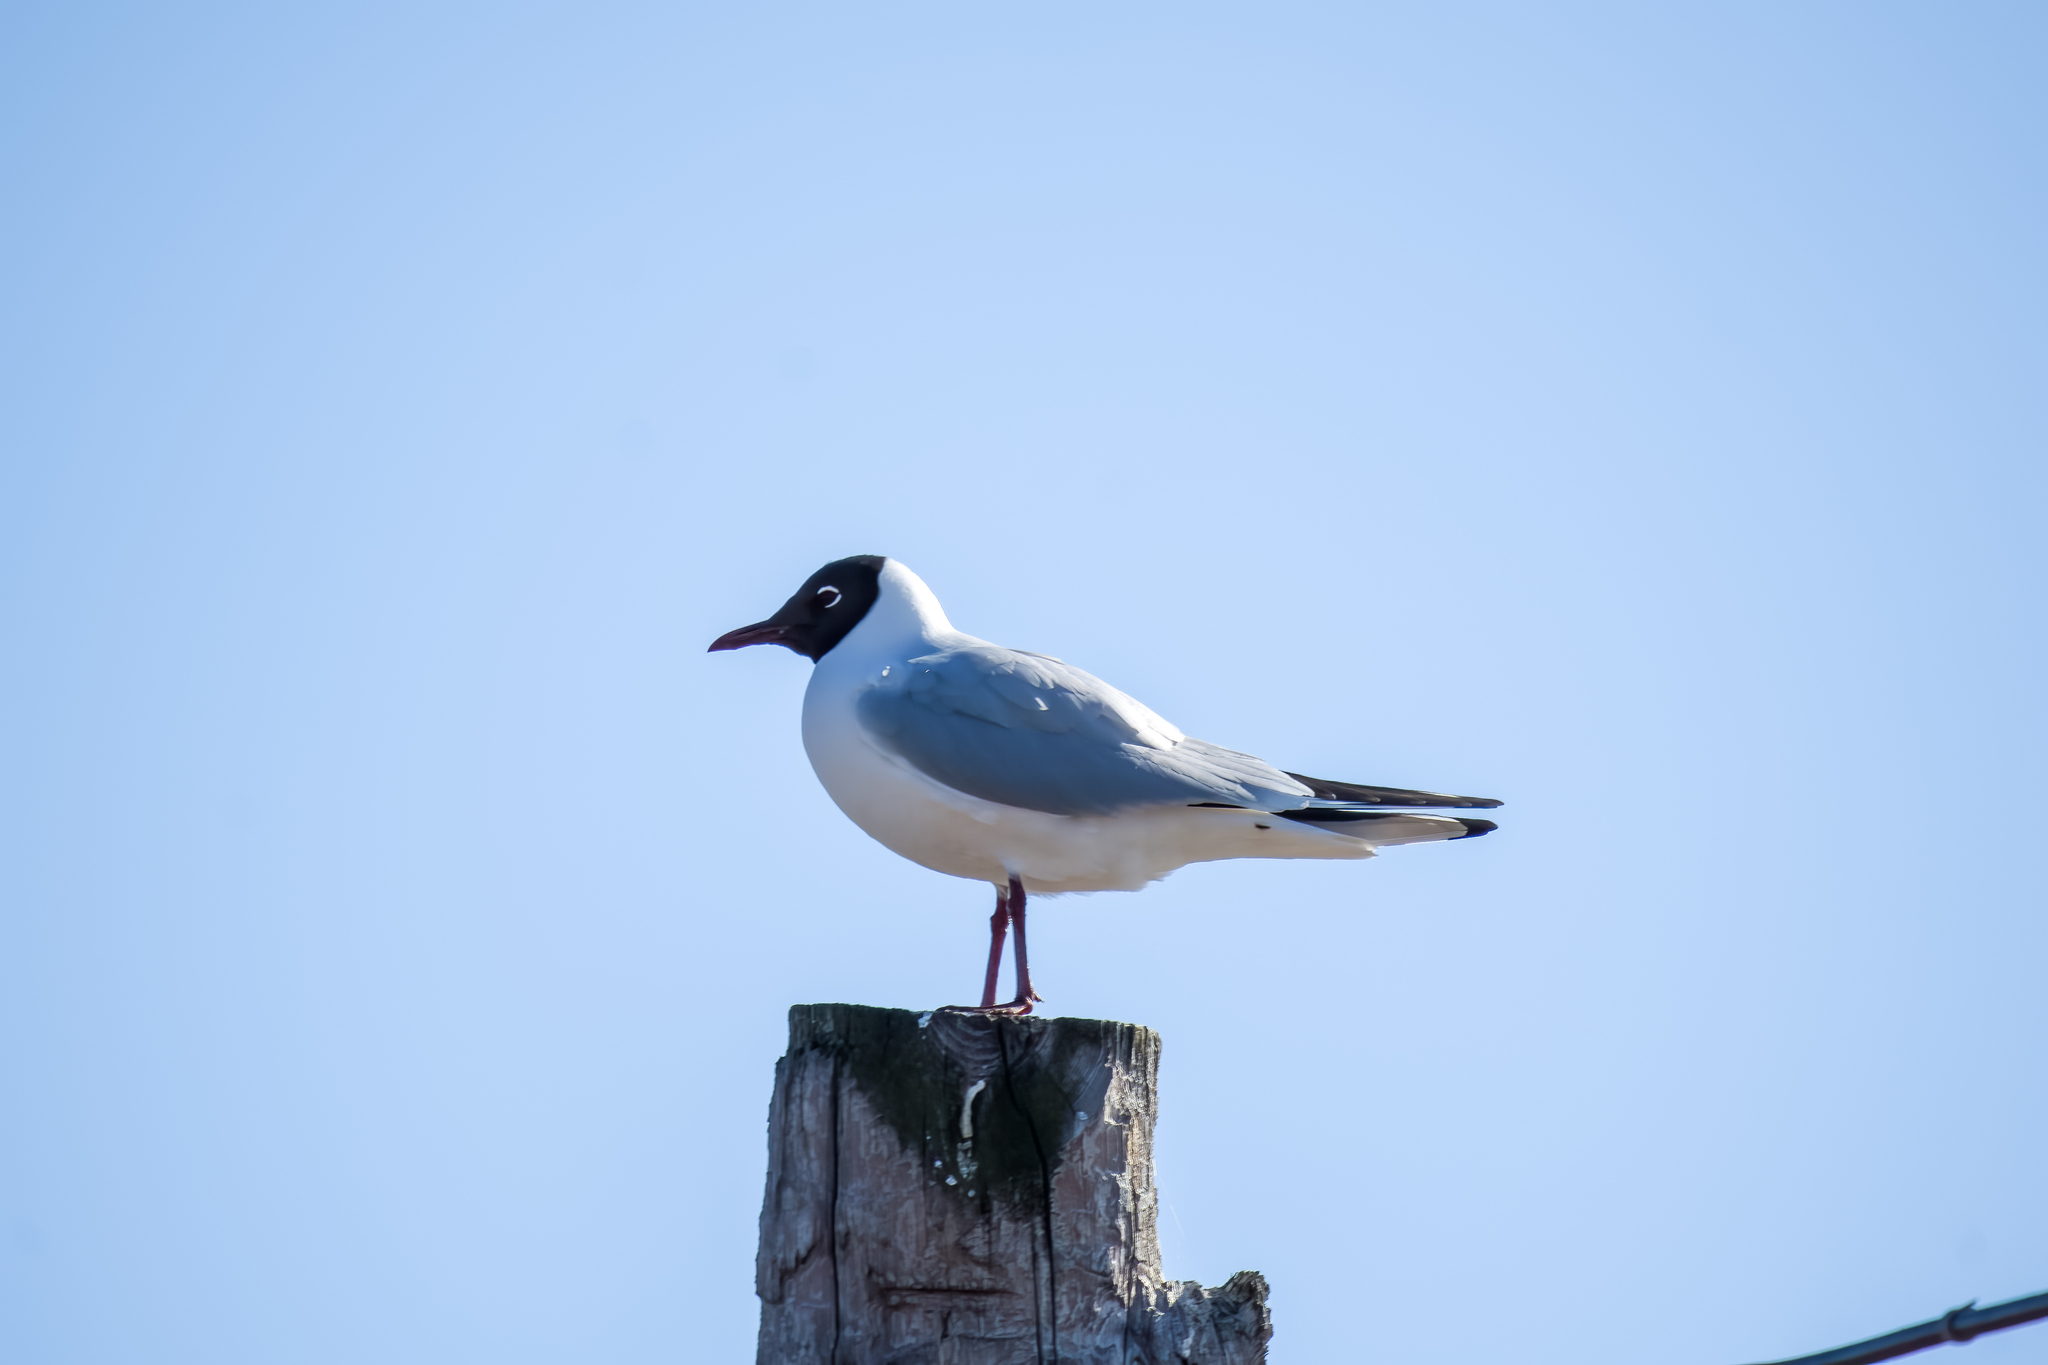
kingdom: Animalia
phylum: Chordata
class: Aves
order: Charadriiformes
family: Laridae
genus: Chroicocephalus
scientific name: Chroicocephalus ridibundus
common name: Black-headed gull
